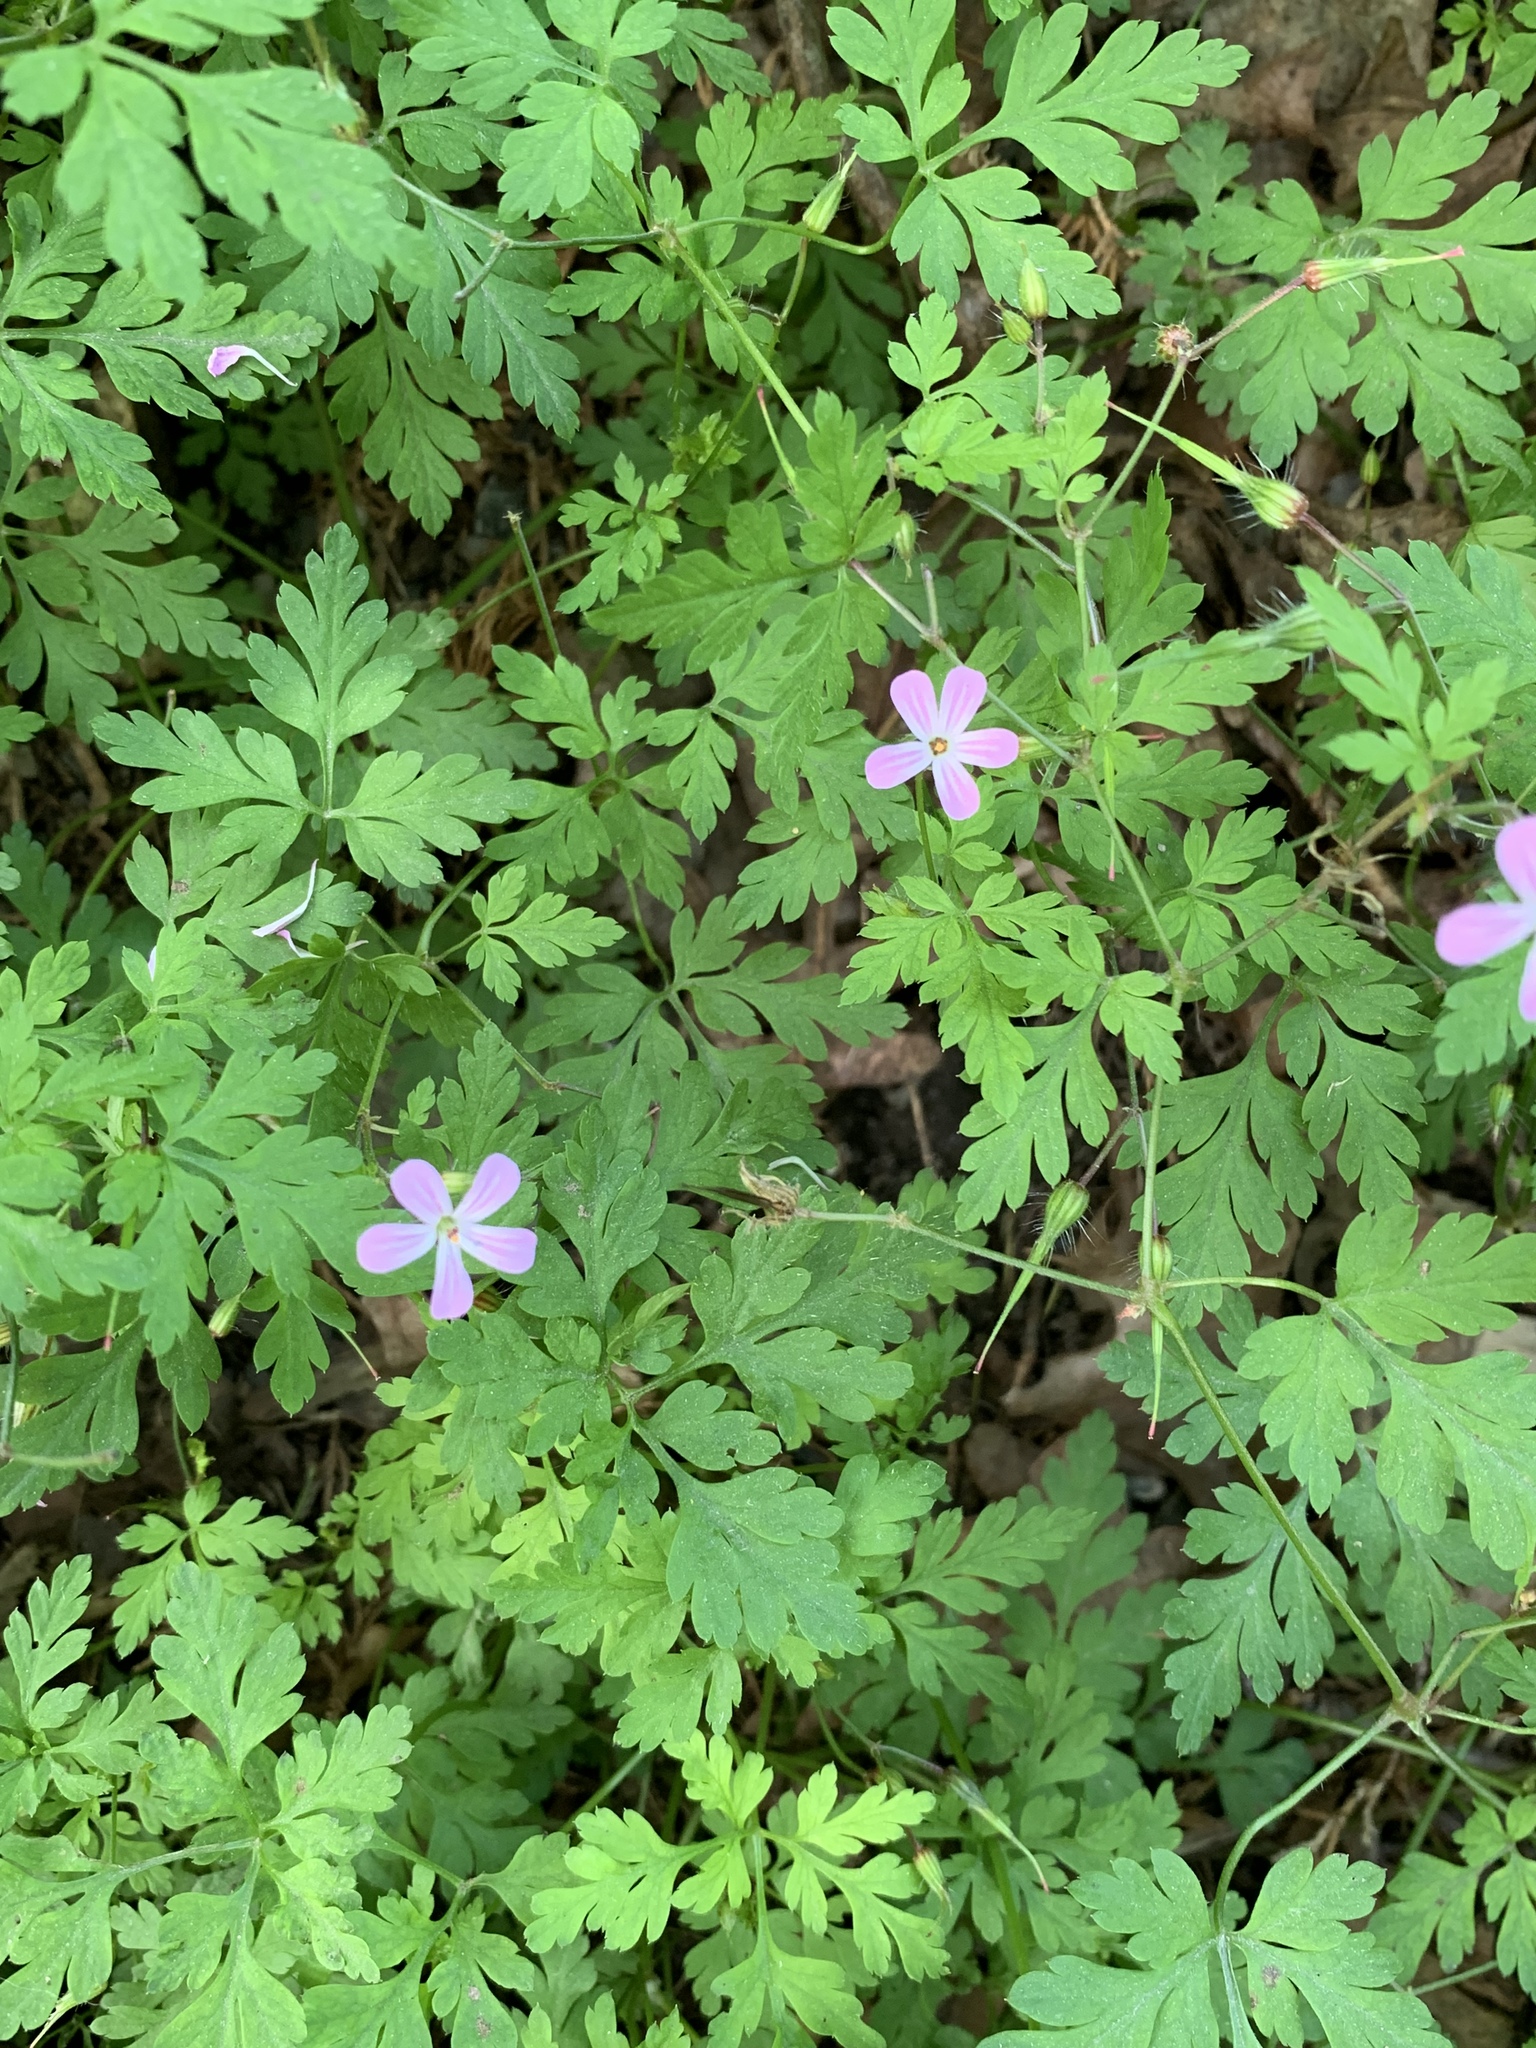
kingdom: Plantae
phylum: Tracheophyta
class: Magnoliopsida
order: Geraniales
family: Geraniaceae
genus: Geranium
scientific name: Geranium robertianum
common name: Herb-robert
